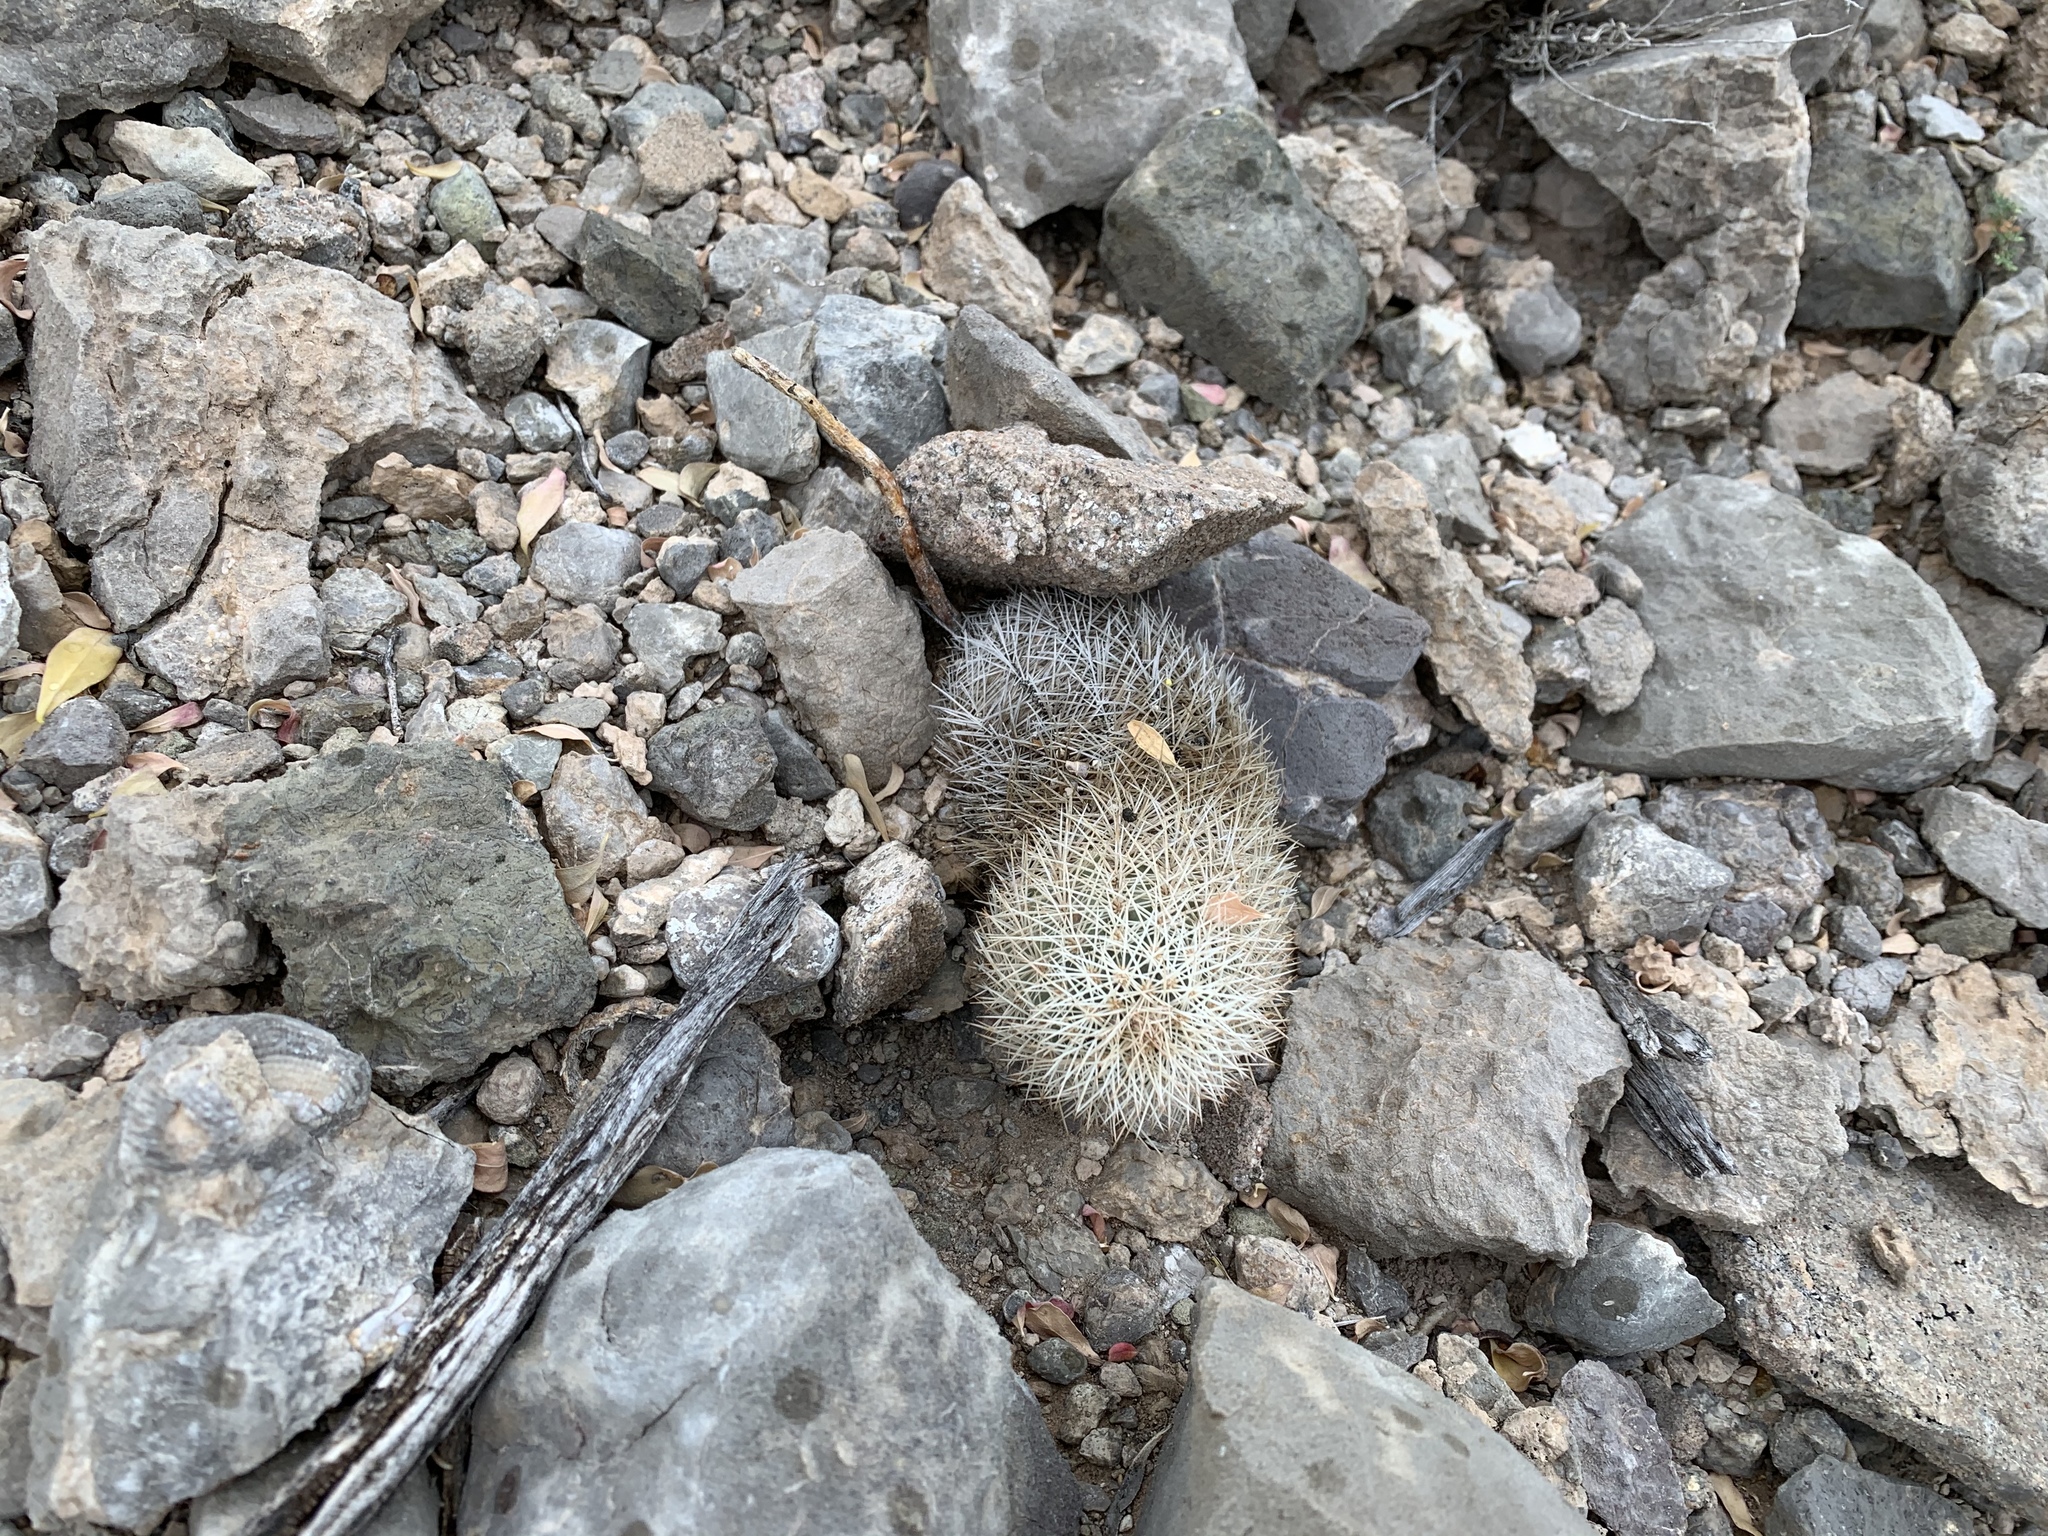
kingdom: Plantae
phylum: Tracheophyta
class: Magnoliopsida
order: Caryophyllales
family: Cactaceae
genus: Echinocereus
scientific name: Echinocereus dasyacanthus
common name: Spiny hedgehog cactus
